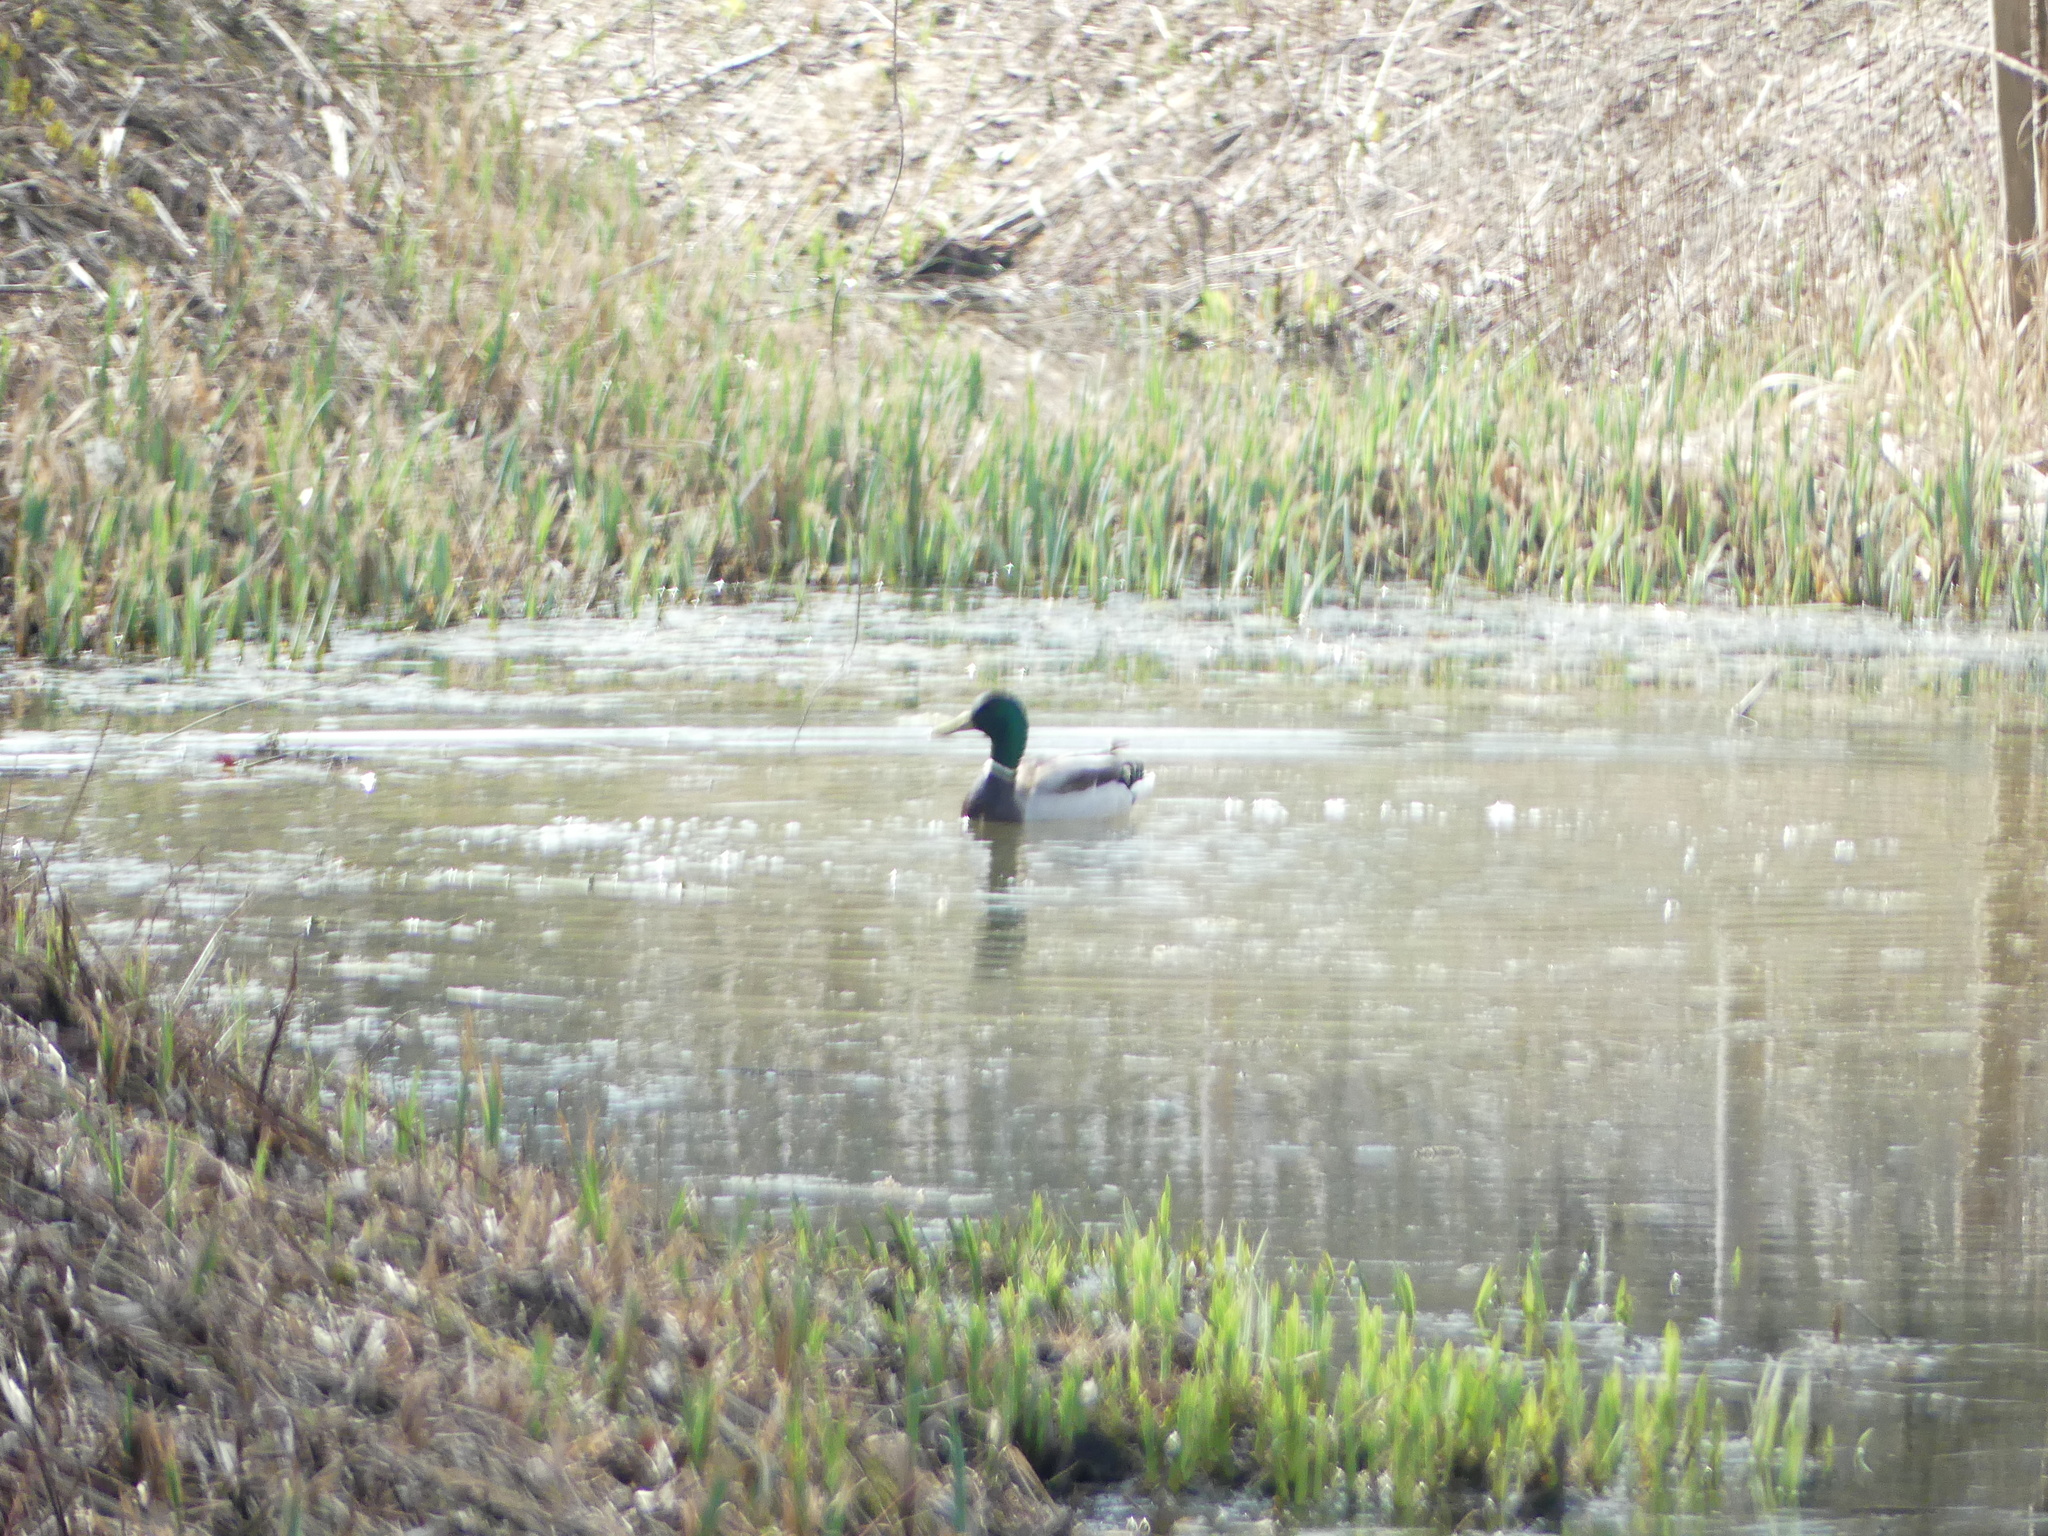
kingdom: Animalia
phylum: Chordata
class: Aves
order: Anseriformes
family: Anatidae
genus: Anas
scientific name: Anas platyrhynchos
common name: Mallard
